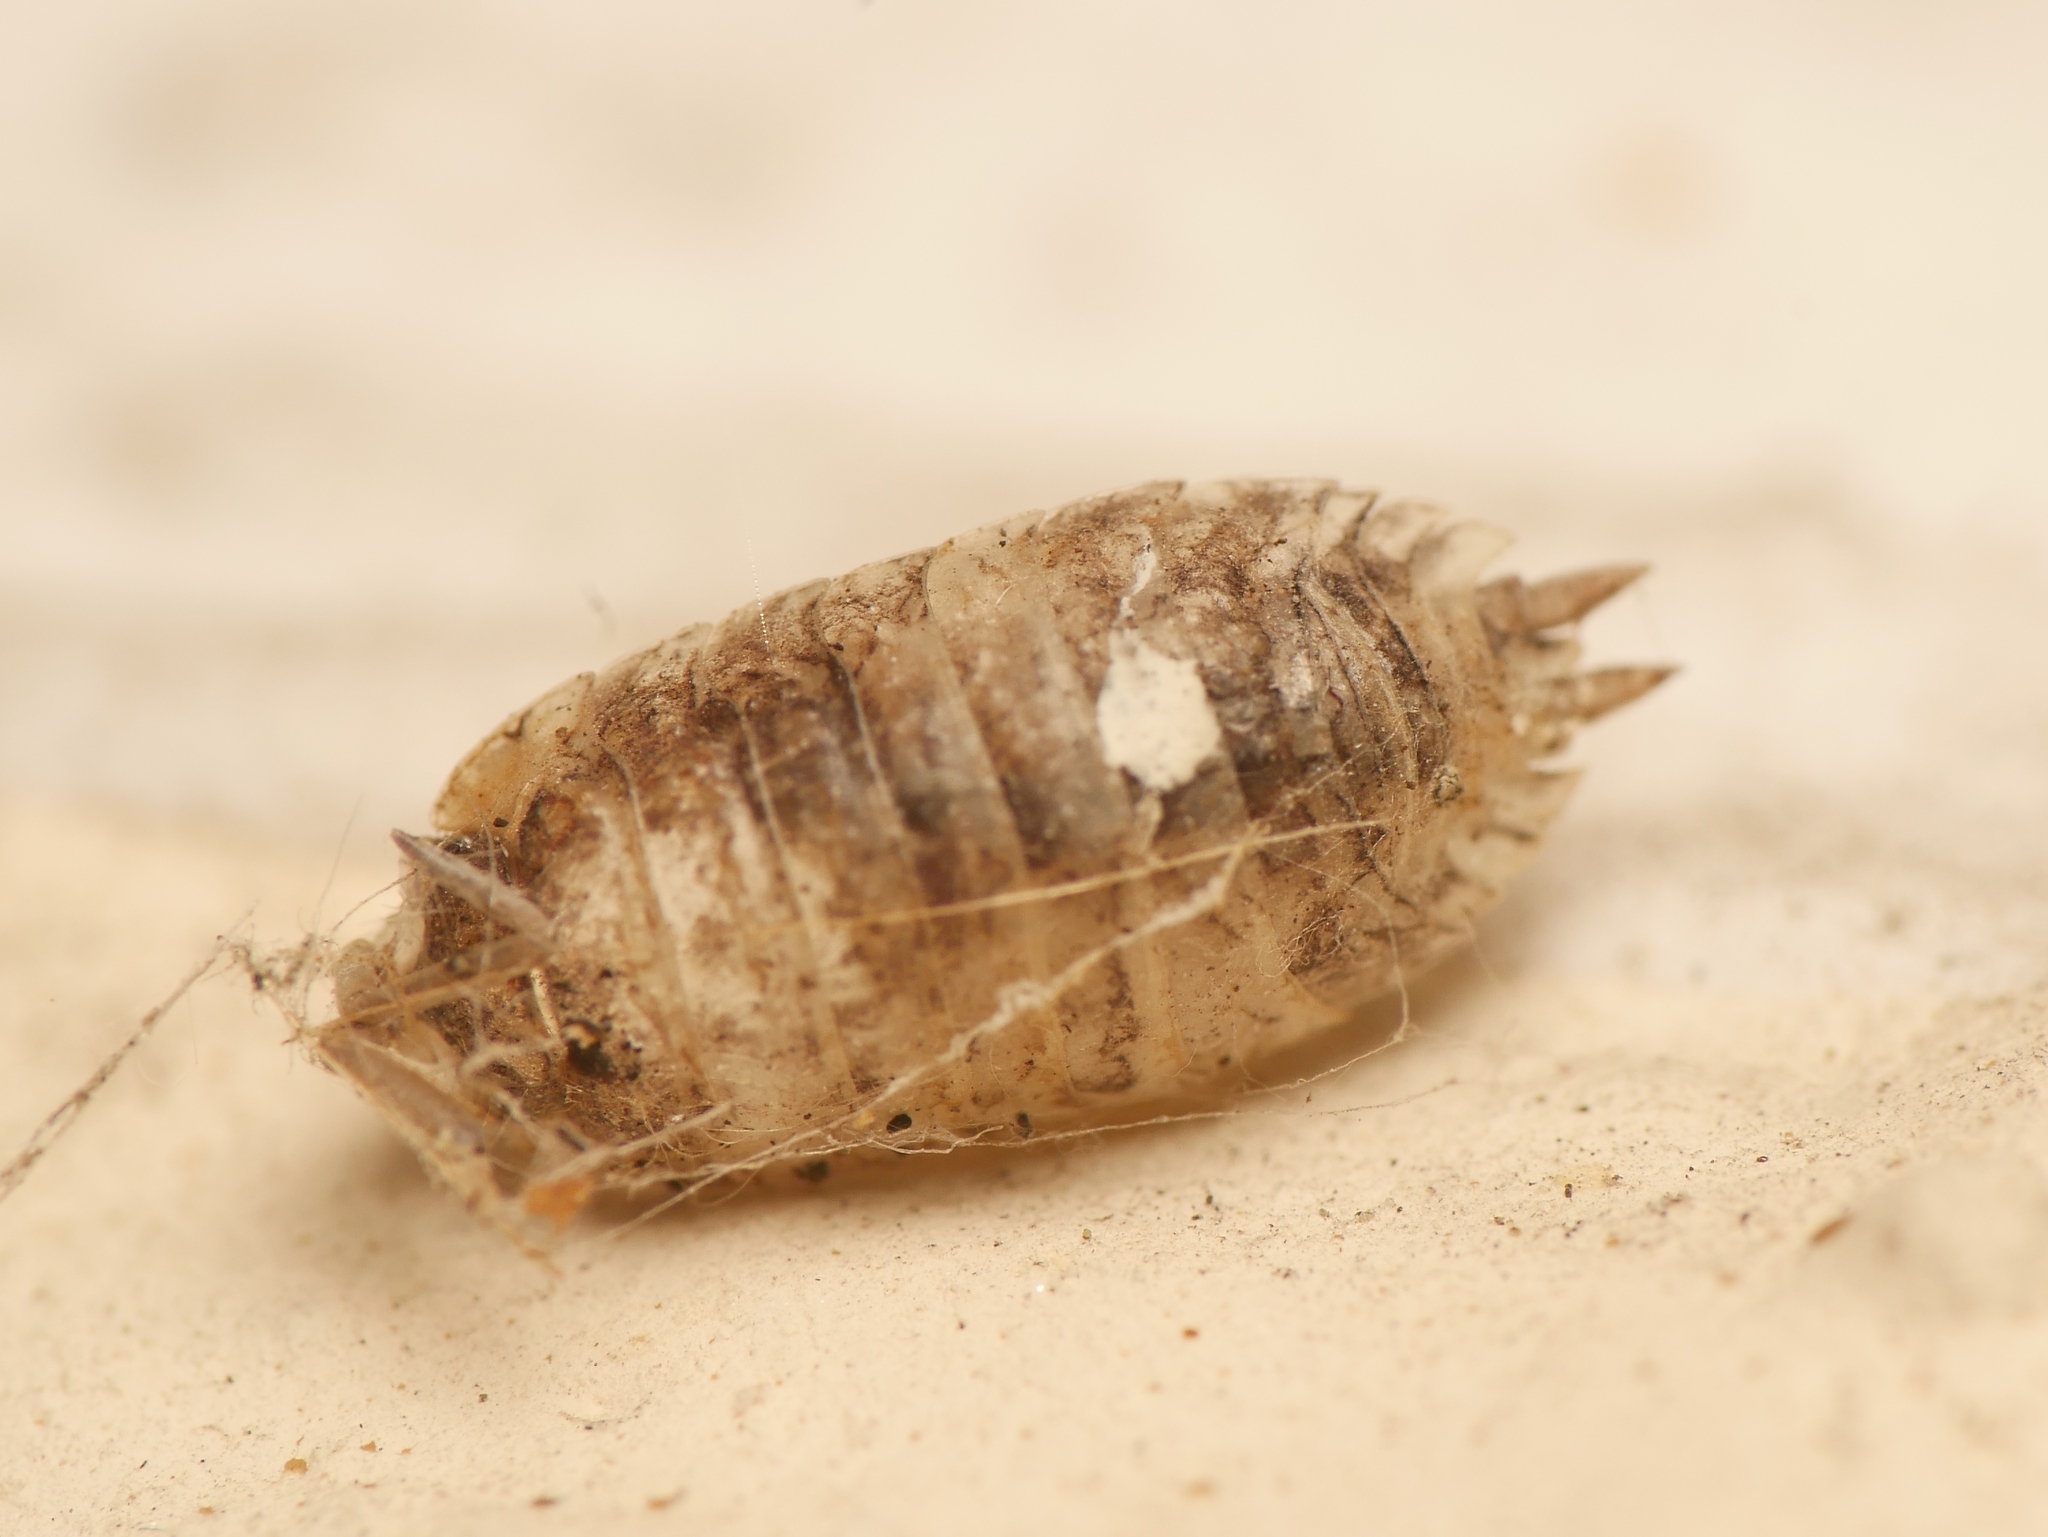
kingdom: Animalia
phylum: Arthropoda
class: Malacostraca
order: Isopoda
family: Porcellionidae
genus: Porcellio
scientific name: Porcellio scaber
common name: Common rough woodlouse
